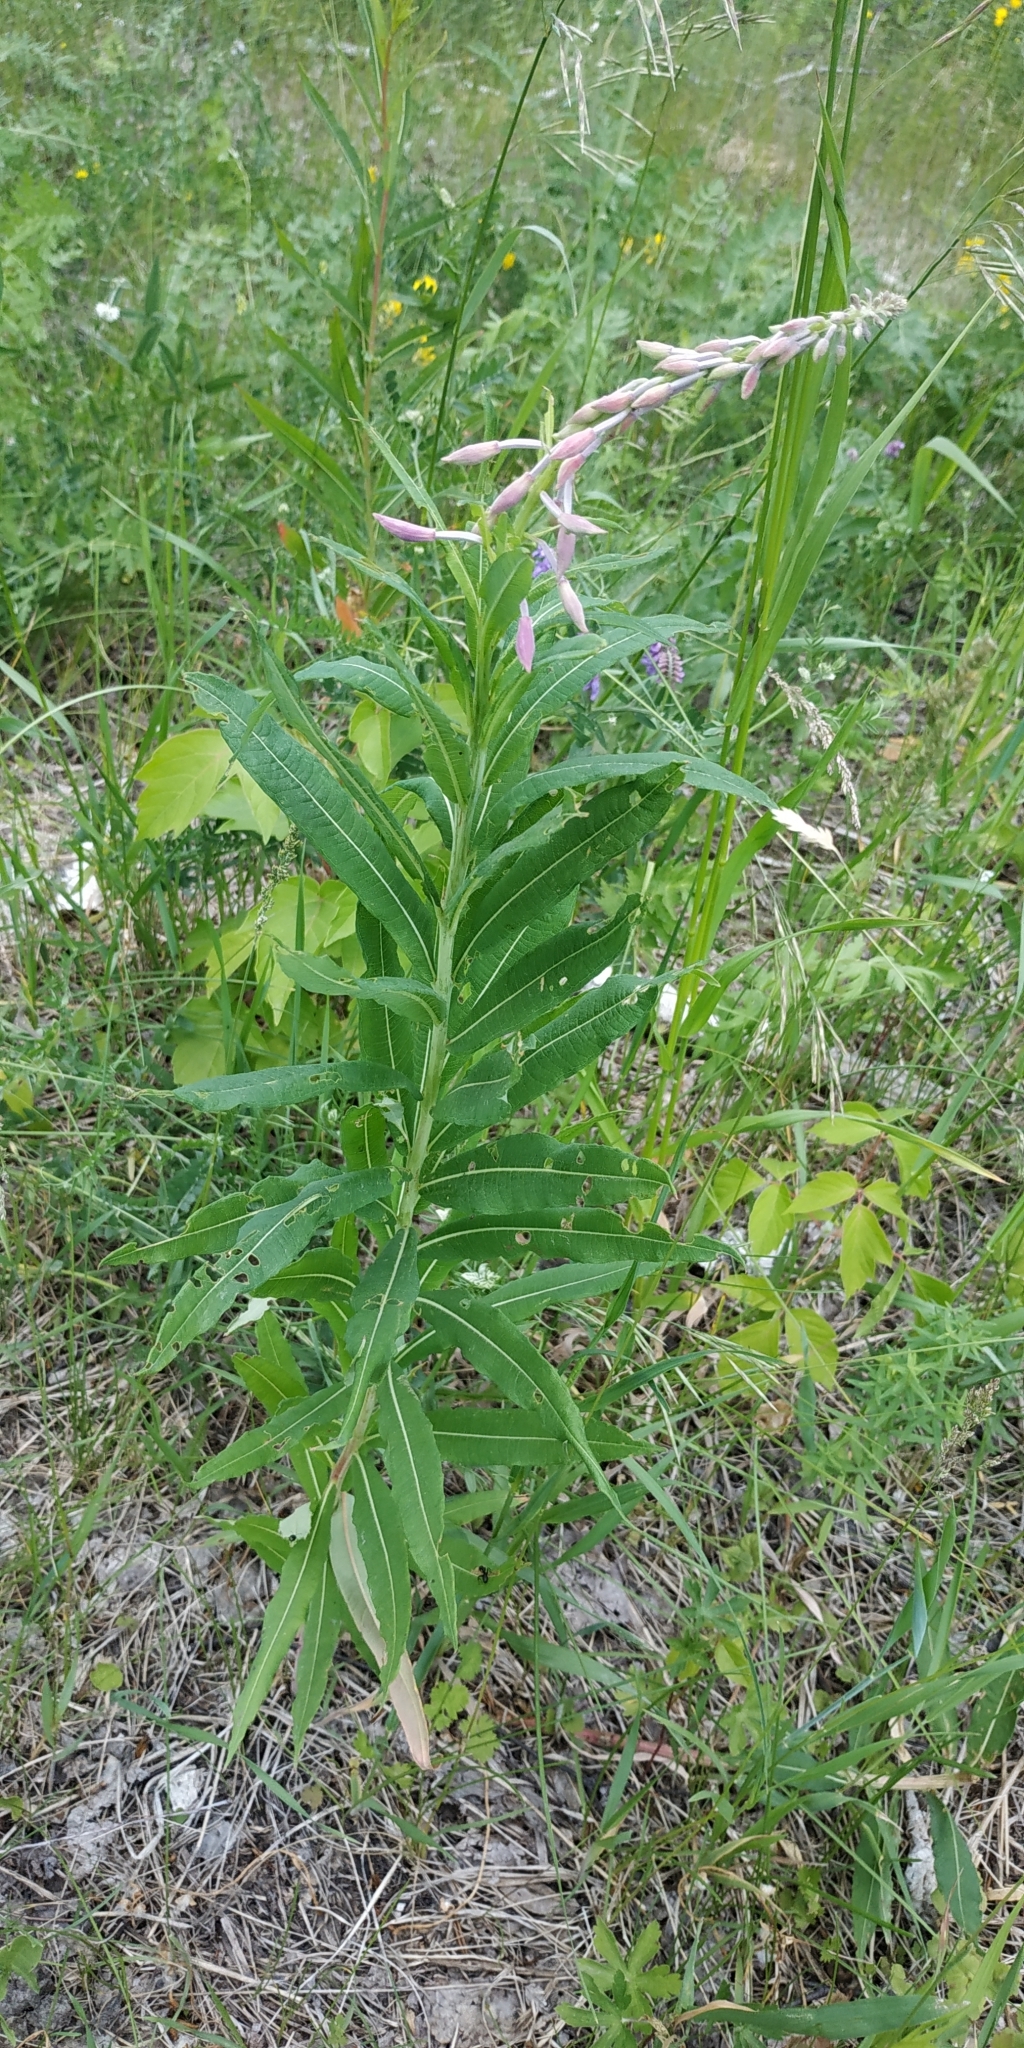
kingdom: Plantae
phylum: Tracheophyta
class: Magnoliopsida
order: Myrtales
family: Onagraceae
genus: Chamaenerion
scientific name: Chamaenerion angustifolium
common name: Fireweed
